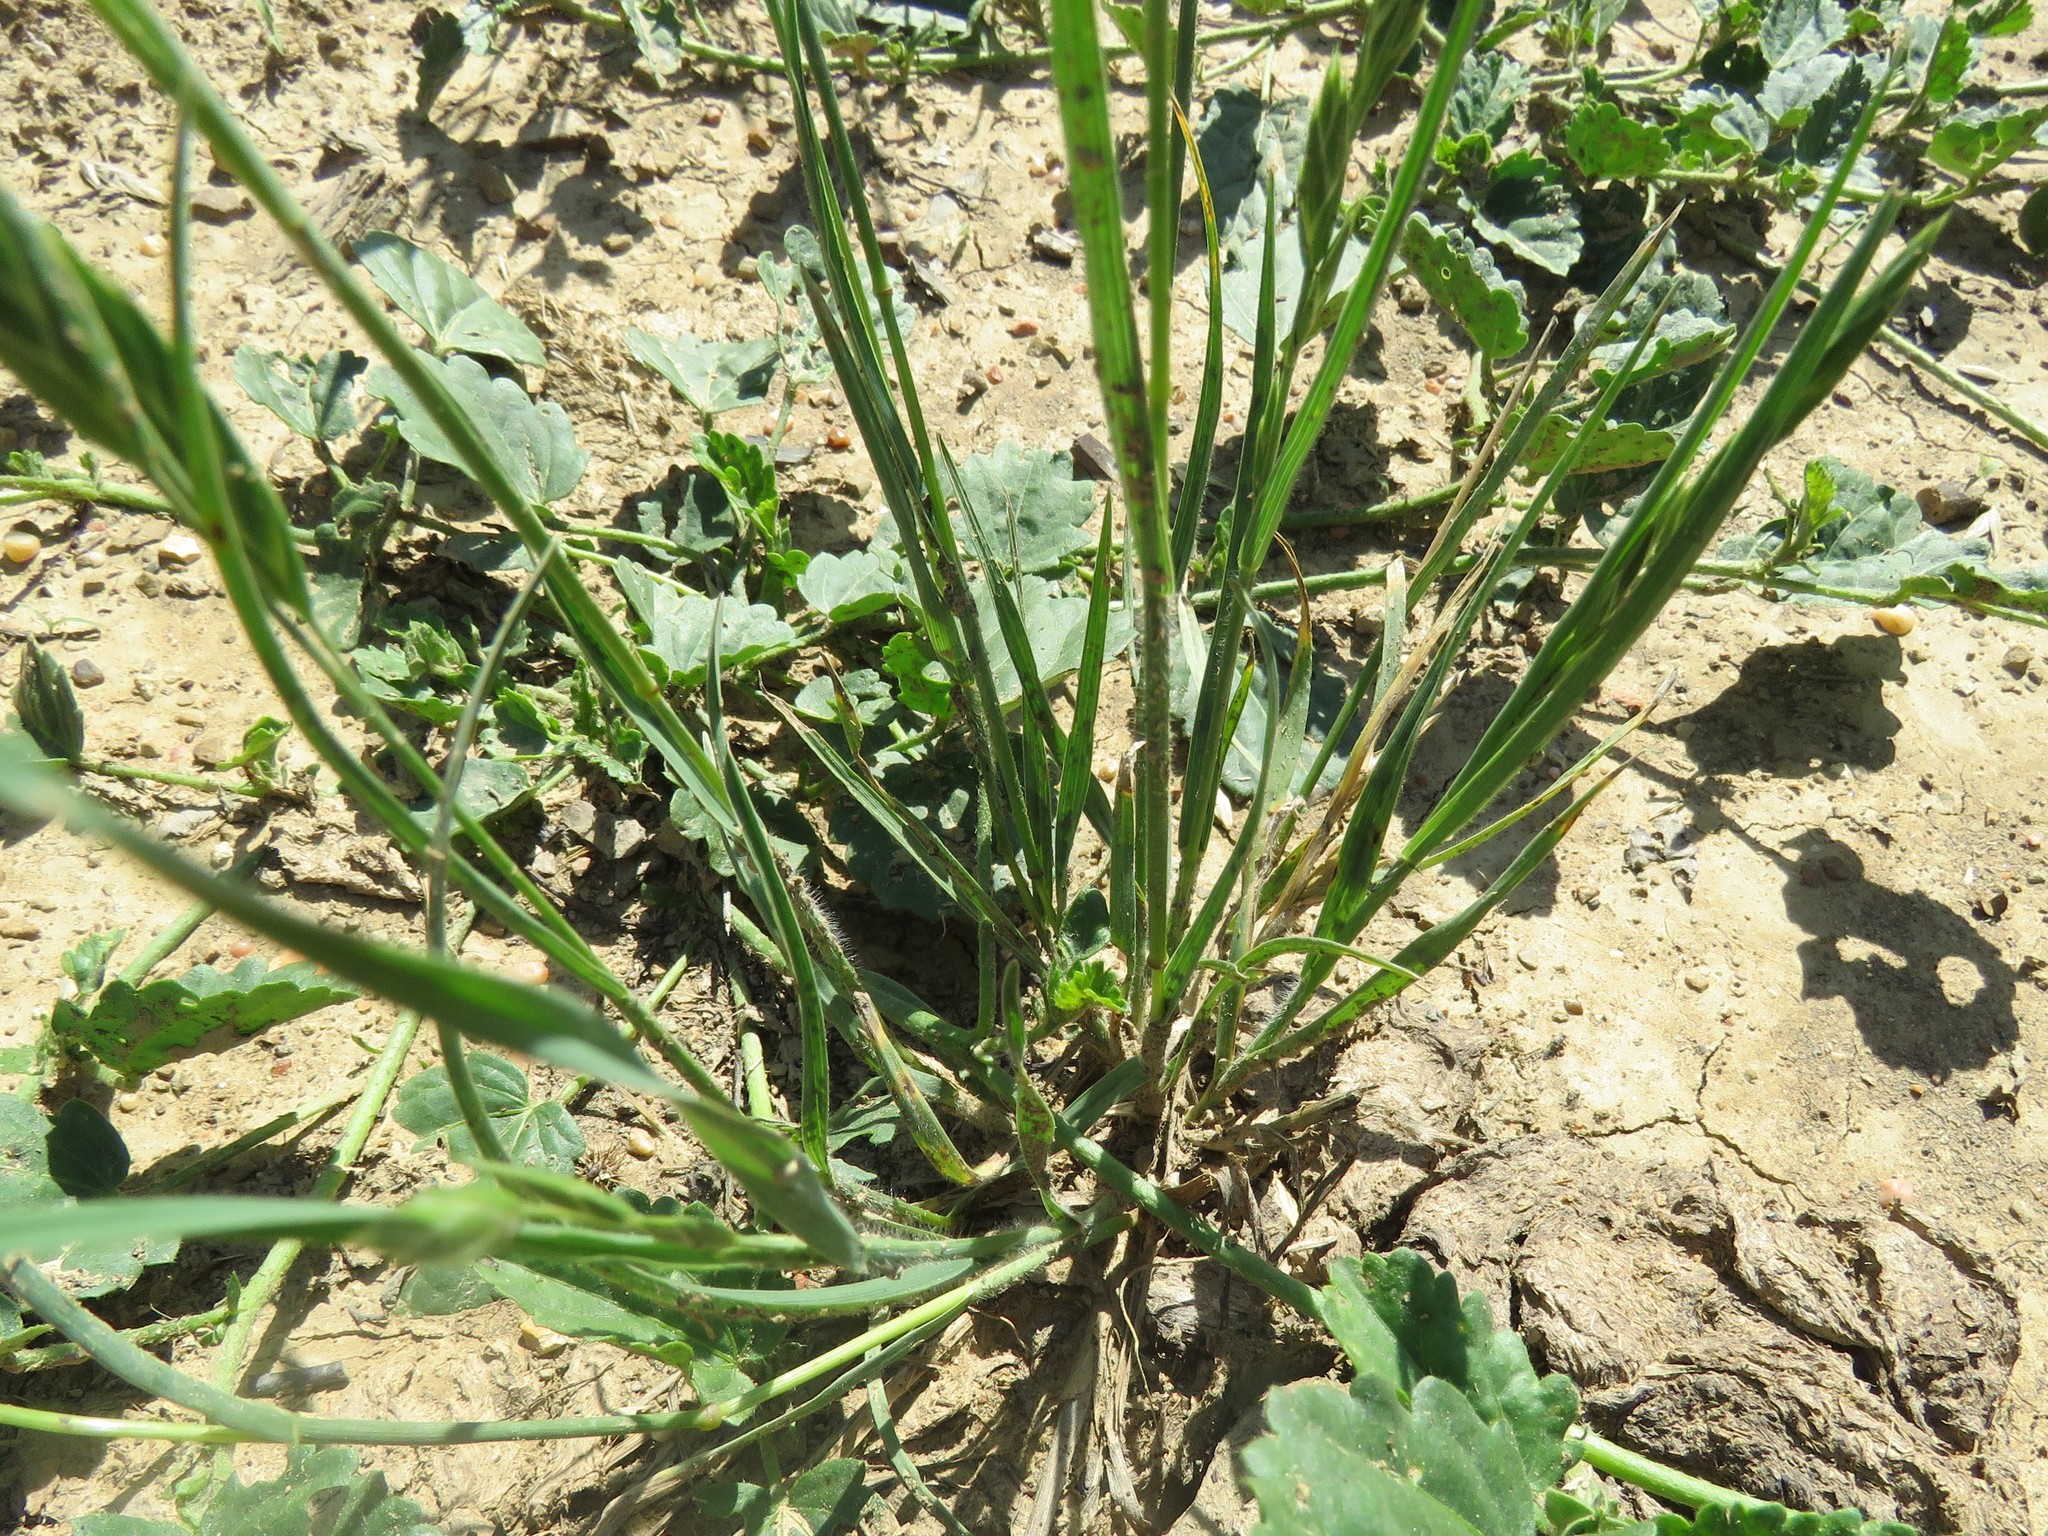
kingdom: Plantae
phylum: Tracheophyta
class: Liliopsida
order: Poales
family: Poaceae
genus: Bromus
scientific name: Bromus catharticus
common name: Rescuegrass
